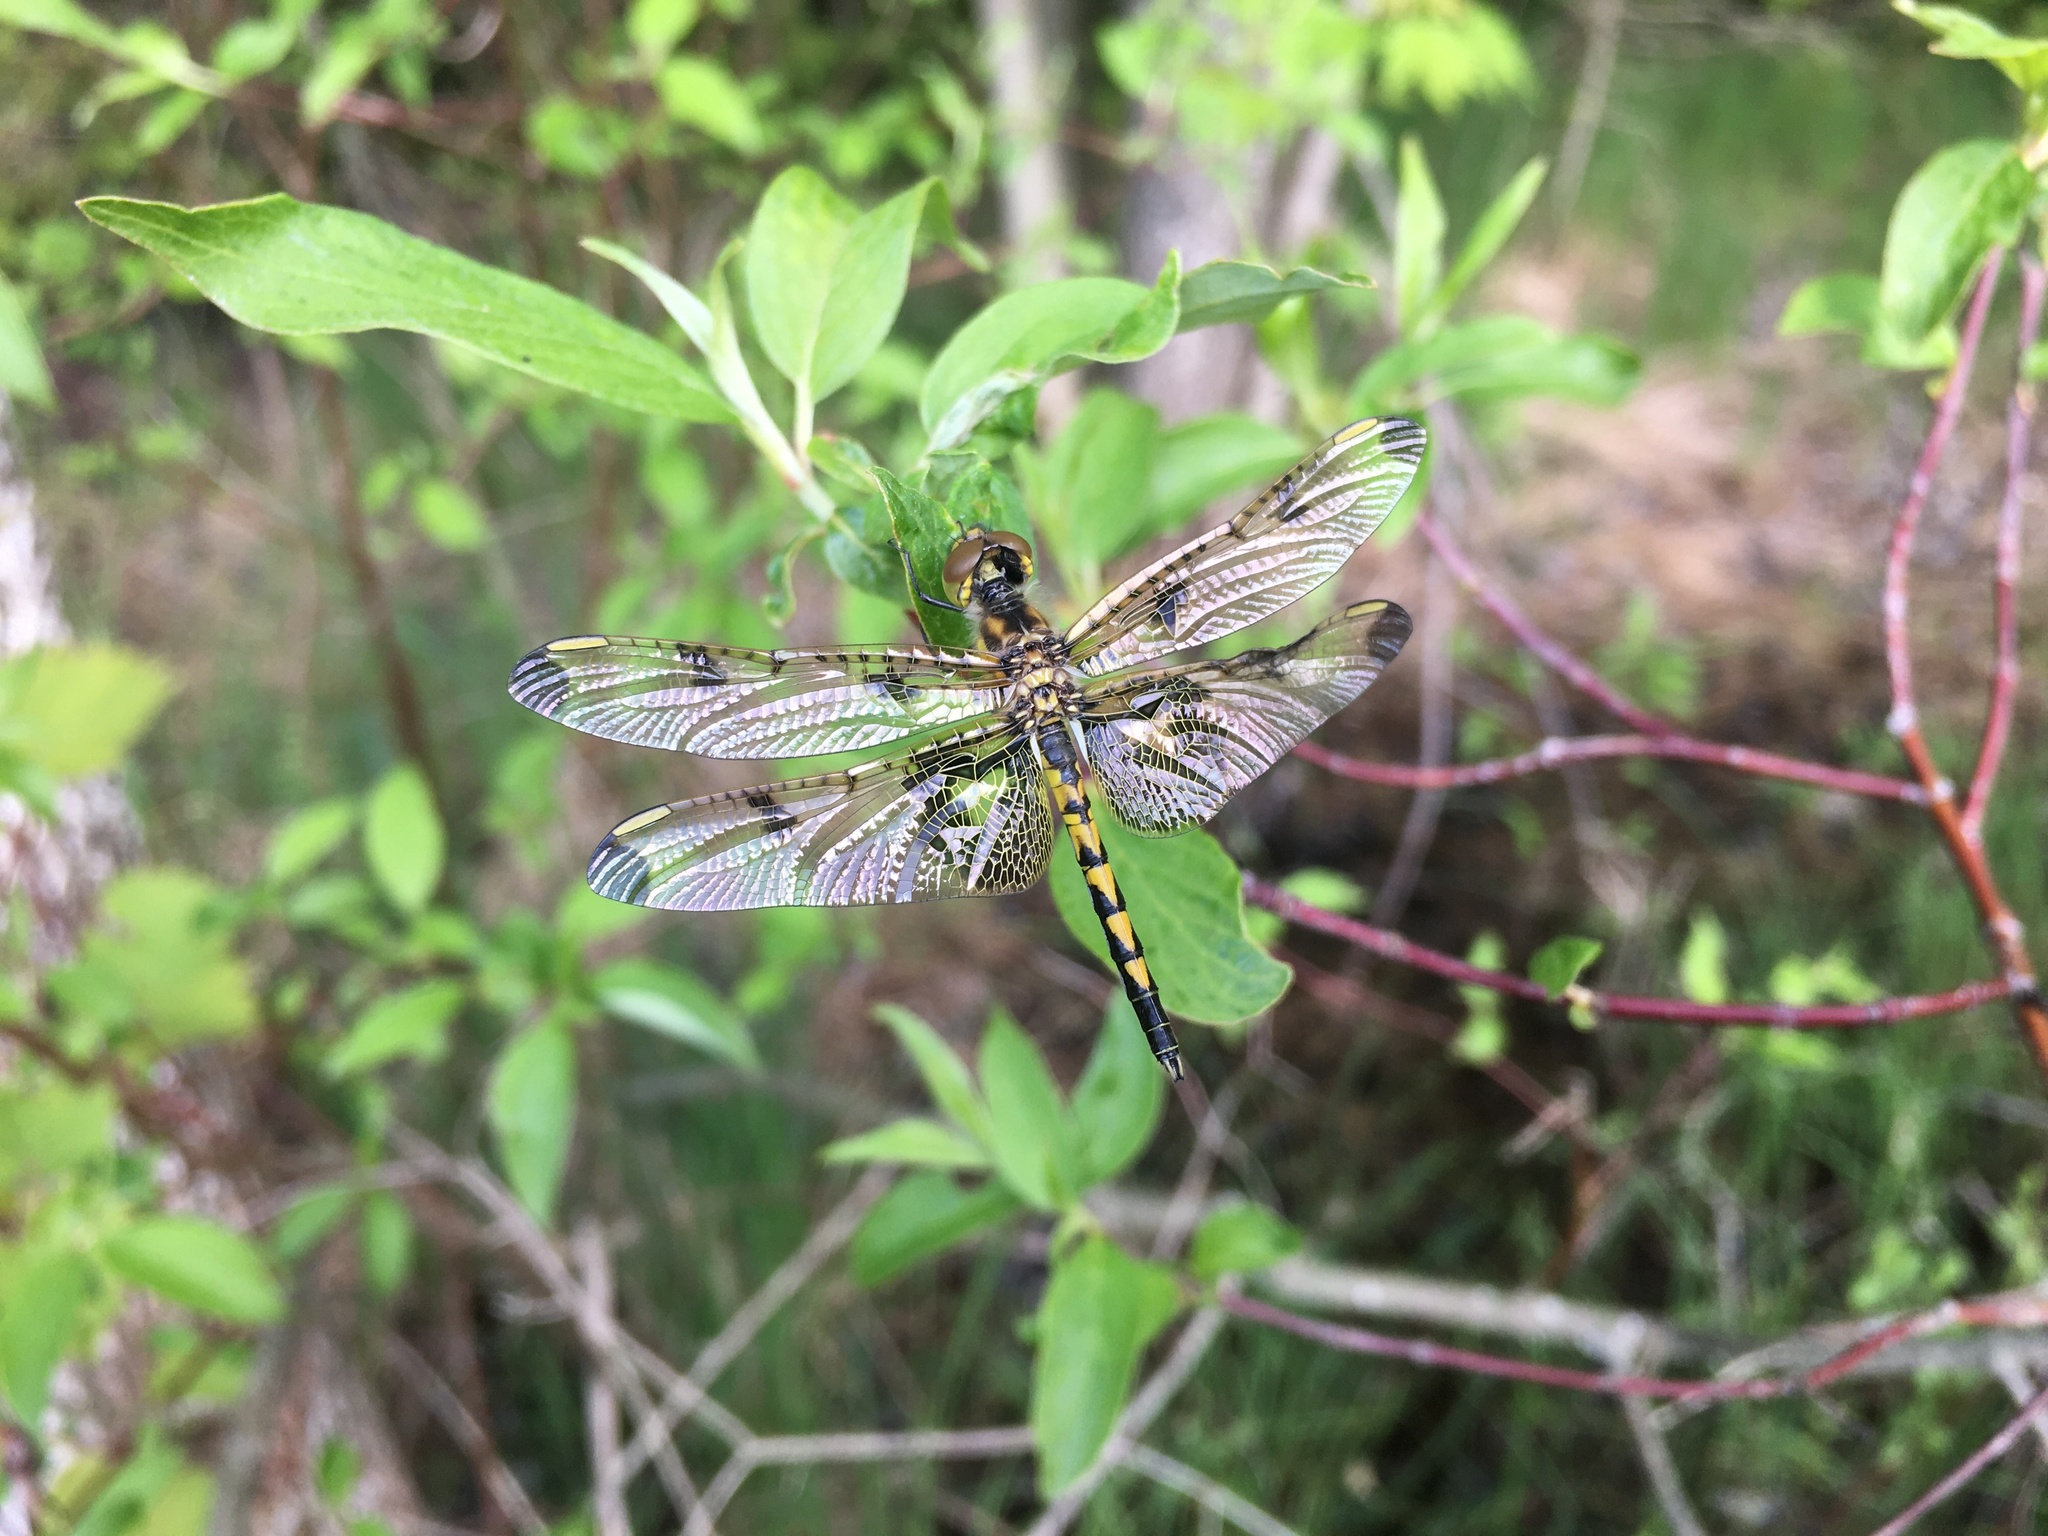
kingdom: Animalia
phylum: Arthropoda
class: Insecta
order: Odonata
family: Libellulidae
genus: Celithemis
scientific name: Celithemis elisa
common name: Calico pennant
